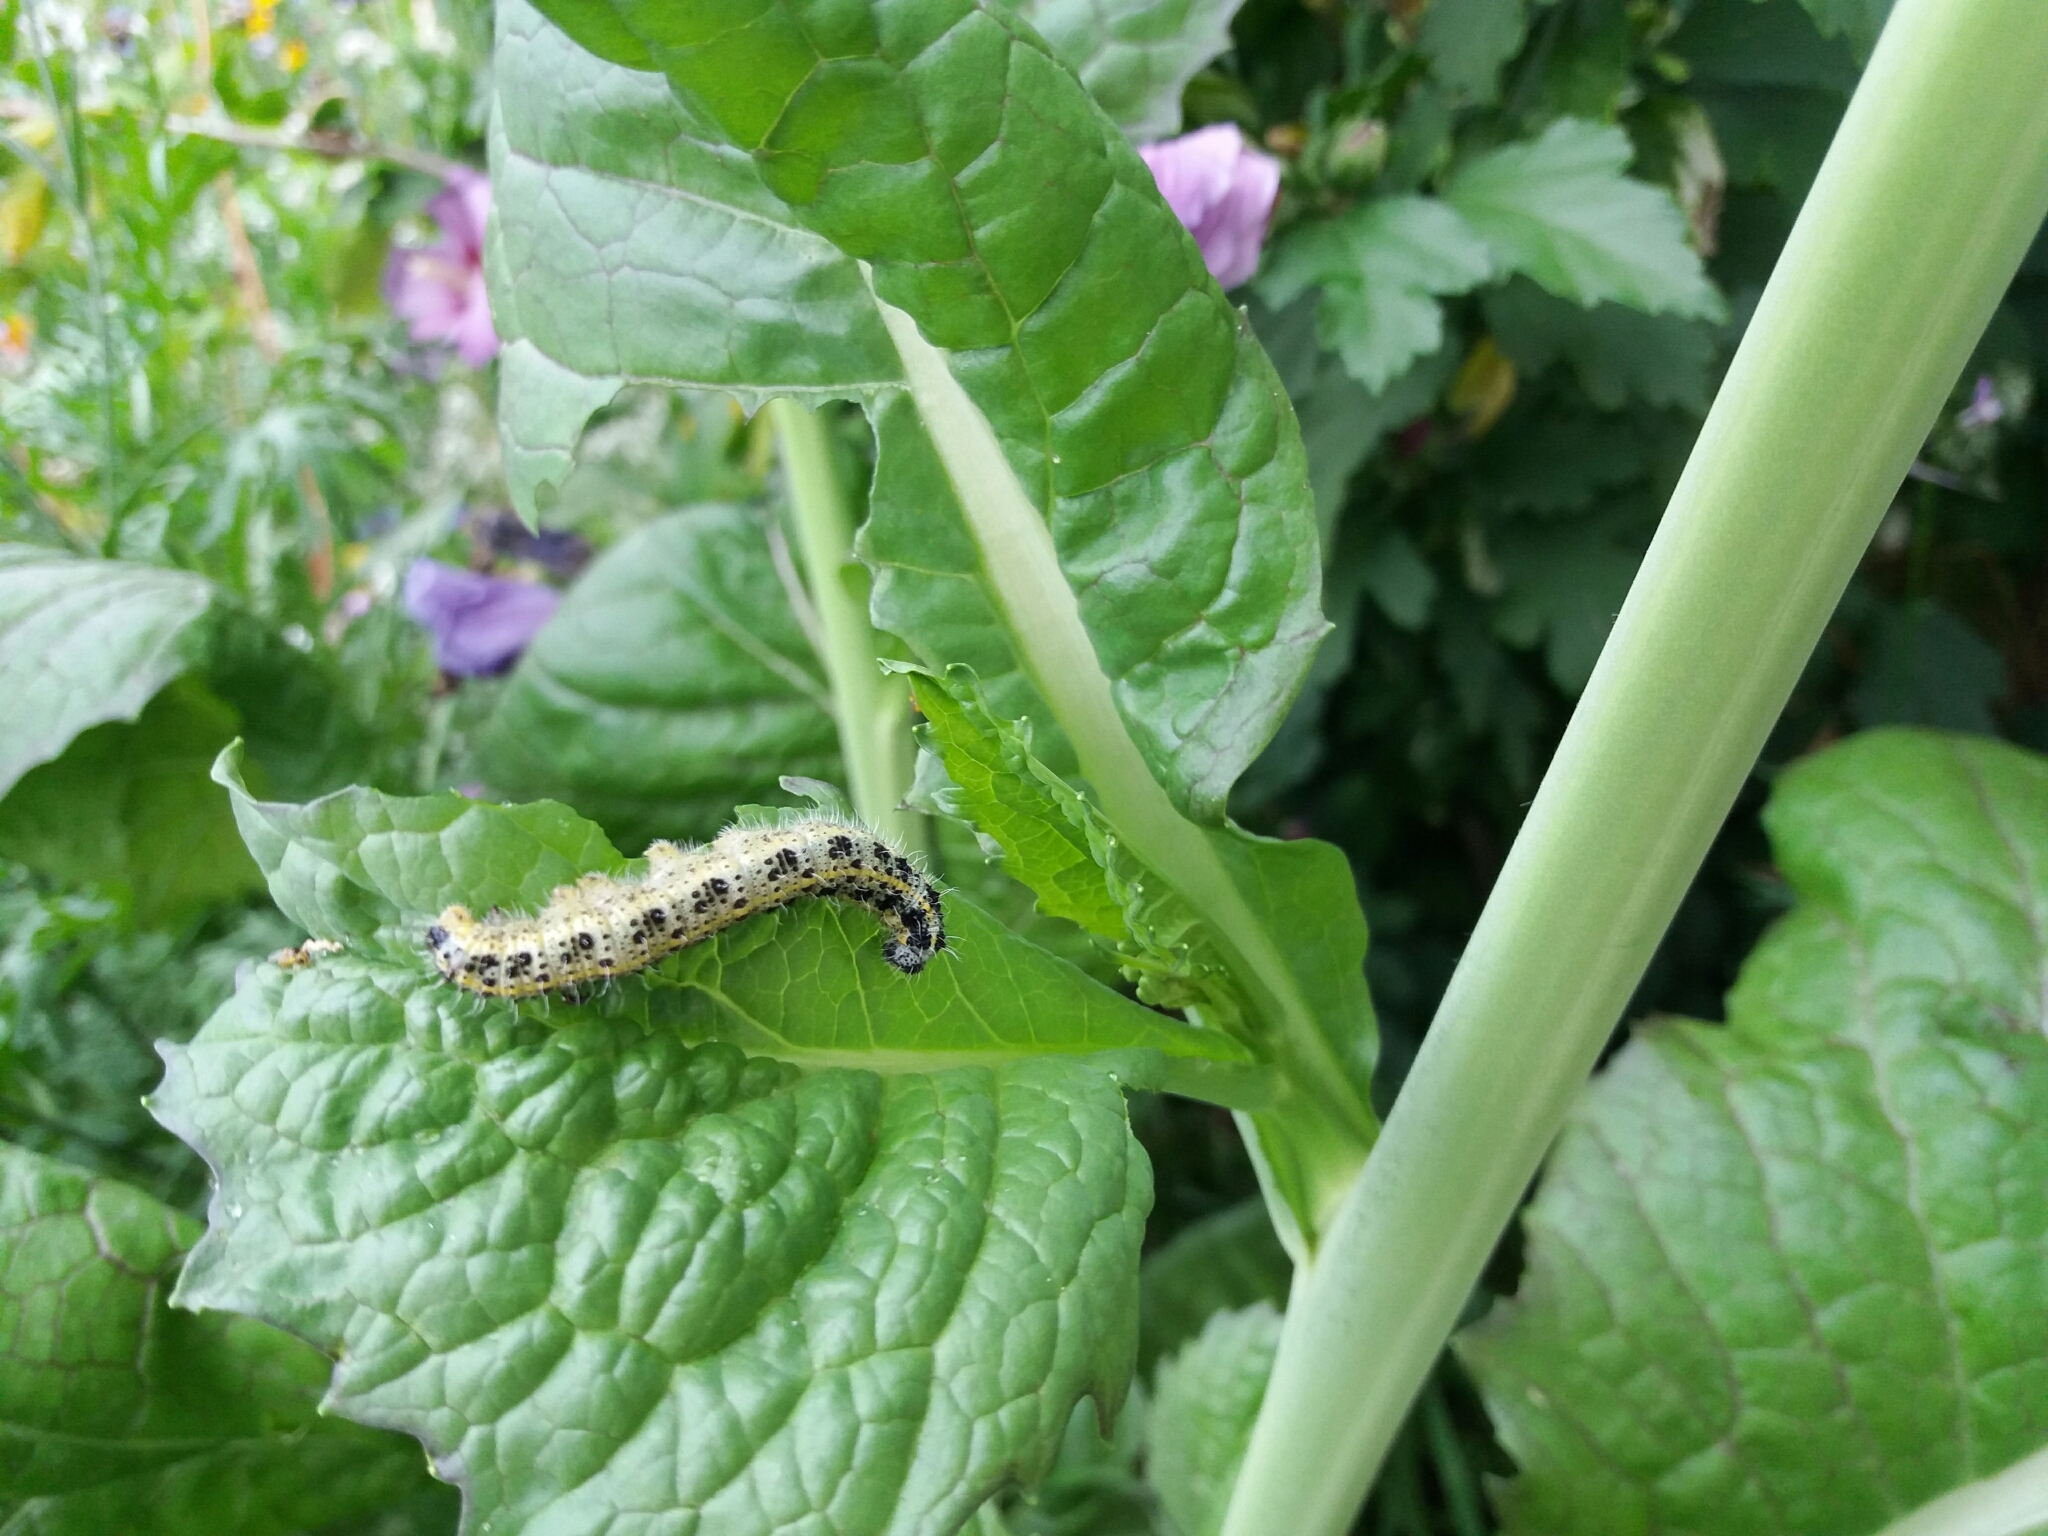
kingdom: Animalia
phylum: Arthropoda
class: Insecta
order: Lepidoptera
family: Pieridae
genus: Pieris
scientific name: Pieris brassicae
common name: Large white
